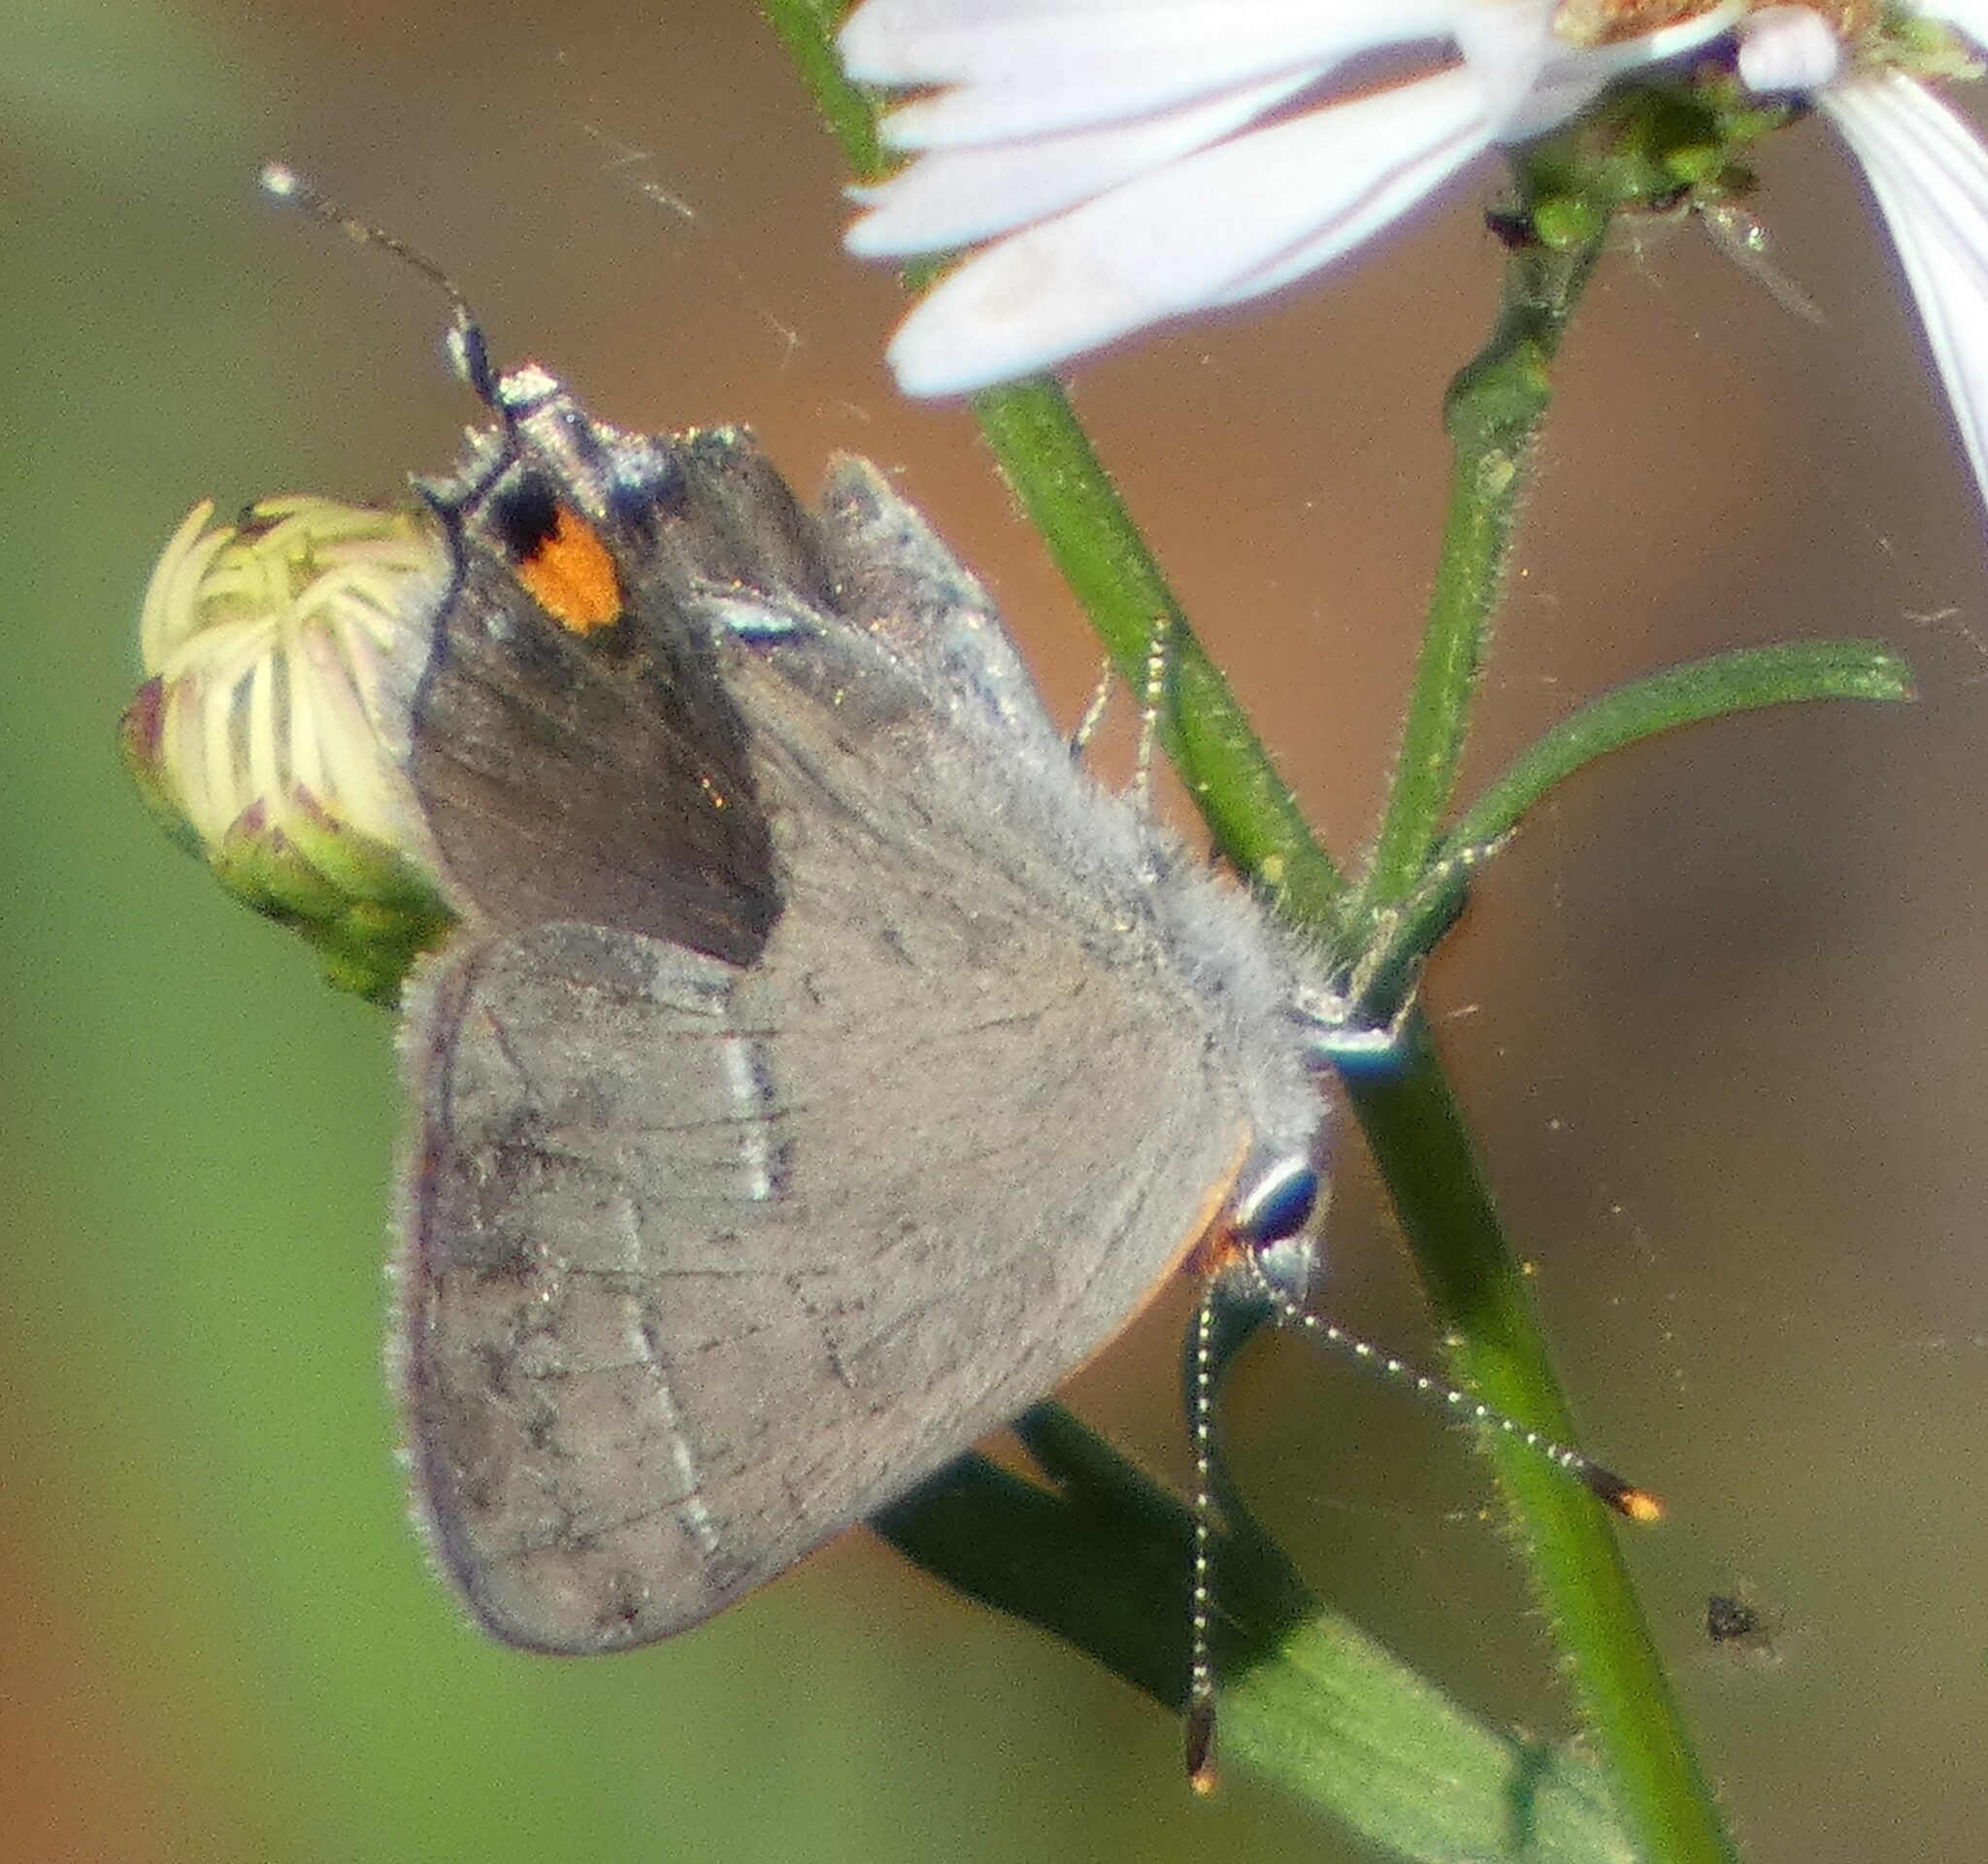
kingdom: Animalia
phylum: Arthropoda
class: Insecta
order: Lepidoptera
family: Lycaenidae
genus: Strymon
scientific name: Strymon melinus
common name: Gray hairstreak
